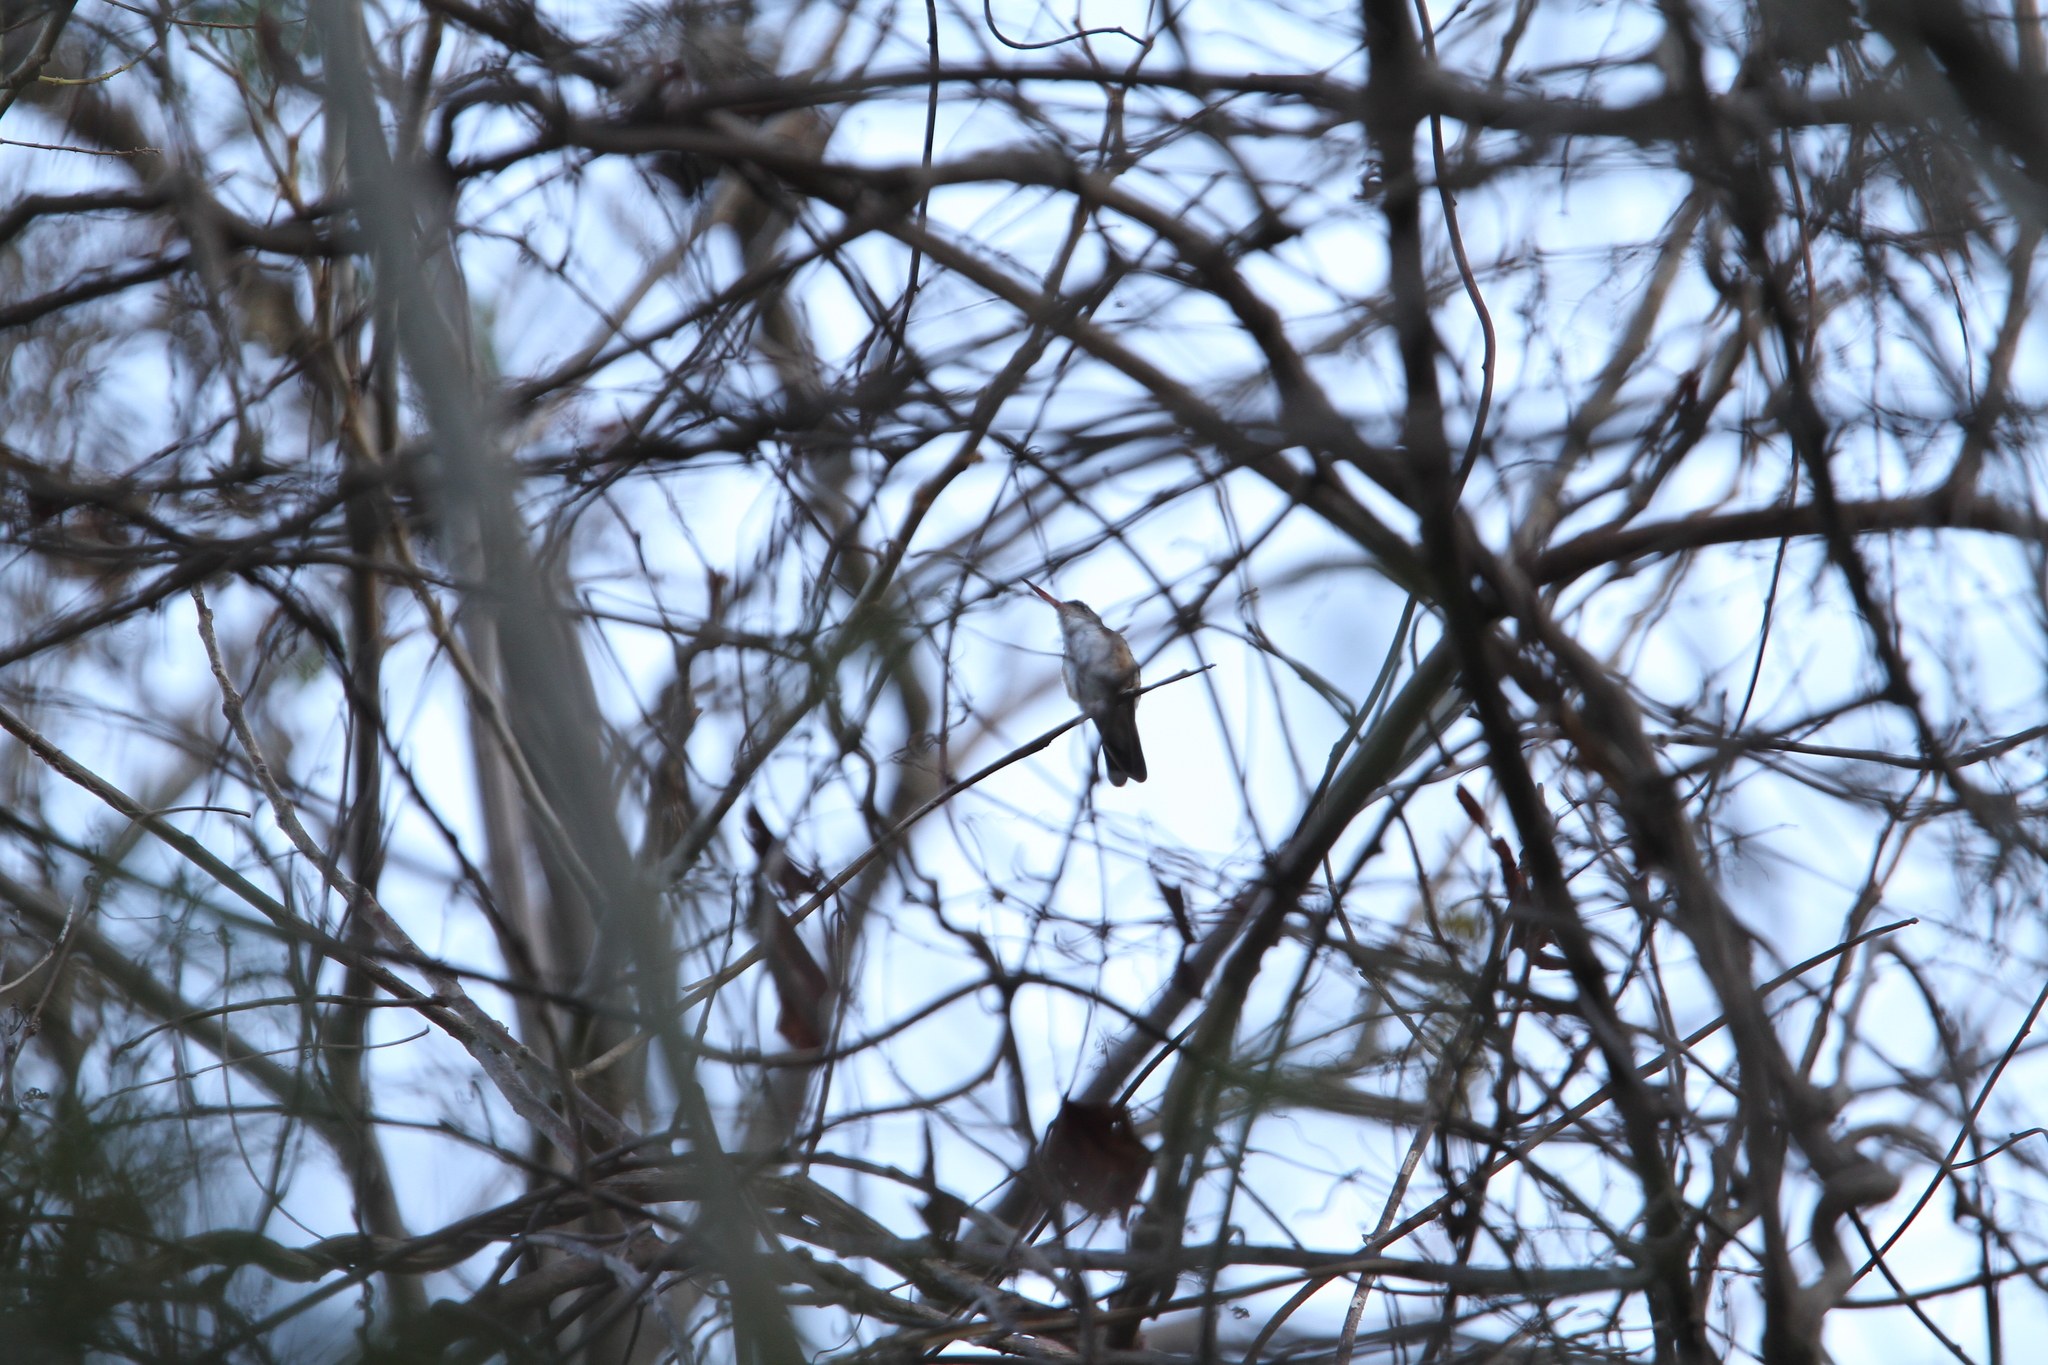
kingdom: Animalia
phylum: Chordata
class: Aves
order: Apodiformes
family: Trochilidae
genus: Leucolia
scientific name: Leucolia viridifrons
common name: Green-fronted hummingbird
